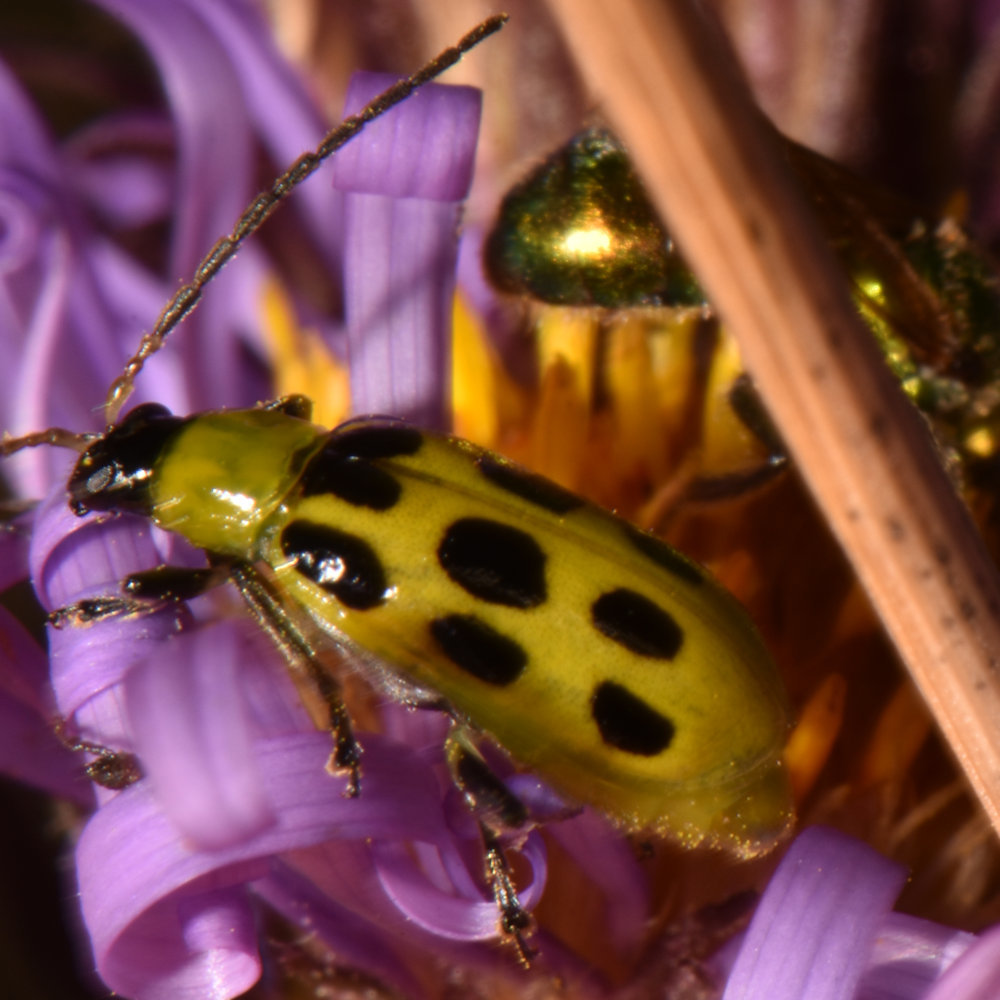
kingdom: Animalia
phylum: Arthropoda
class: Insecta
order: Coleoptera
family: Chrysomelidae
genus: Diabrotica
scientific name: Diabrotica undecimpunctata
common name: Spotted cucumber beetle
